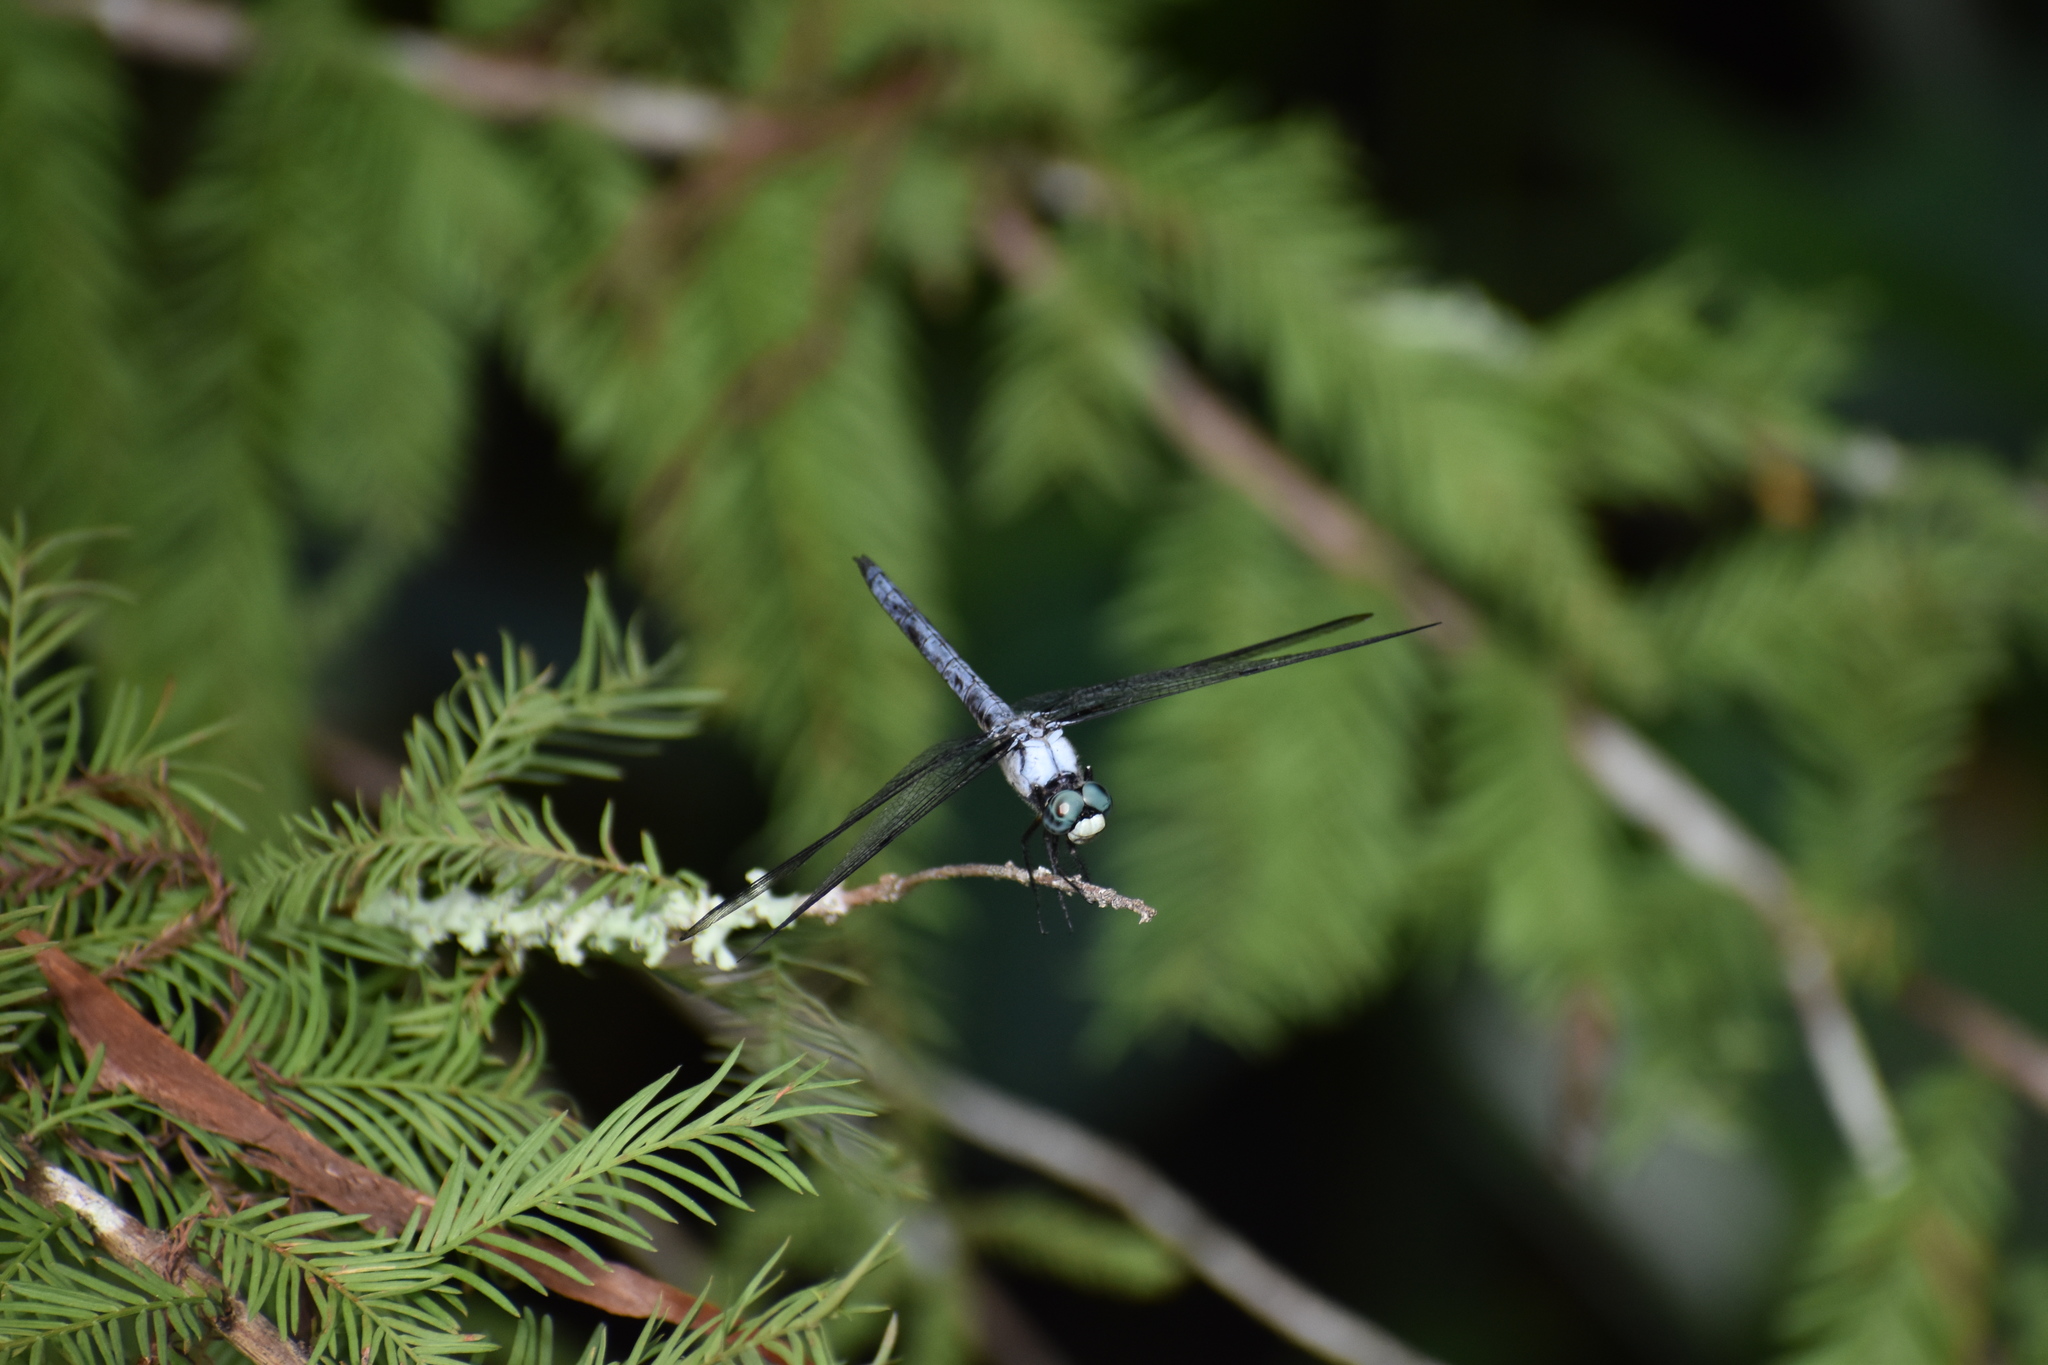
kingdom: Animalia
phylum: Arthropoda
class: Insecta
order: Odonata
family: Libellulidae
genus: Libellula
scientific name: Libellula vibrans
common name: Great blue skimmer
